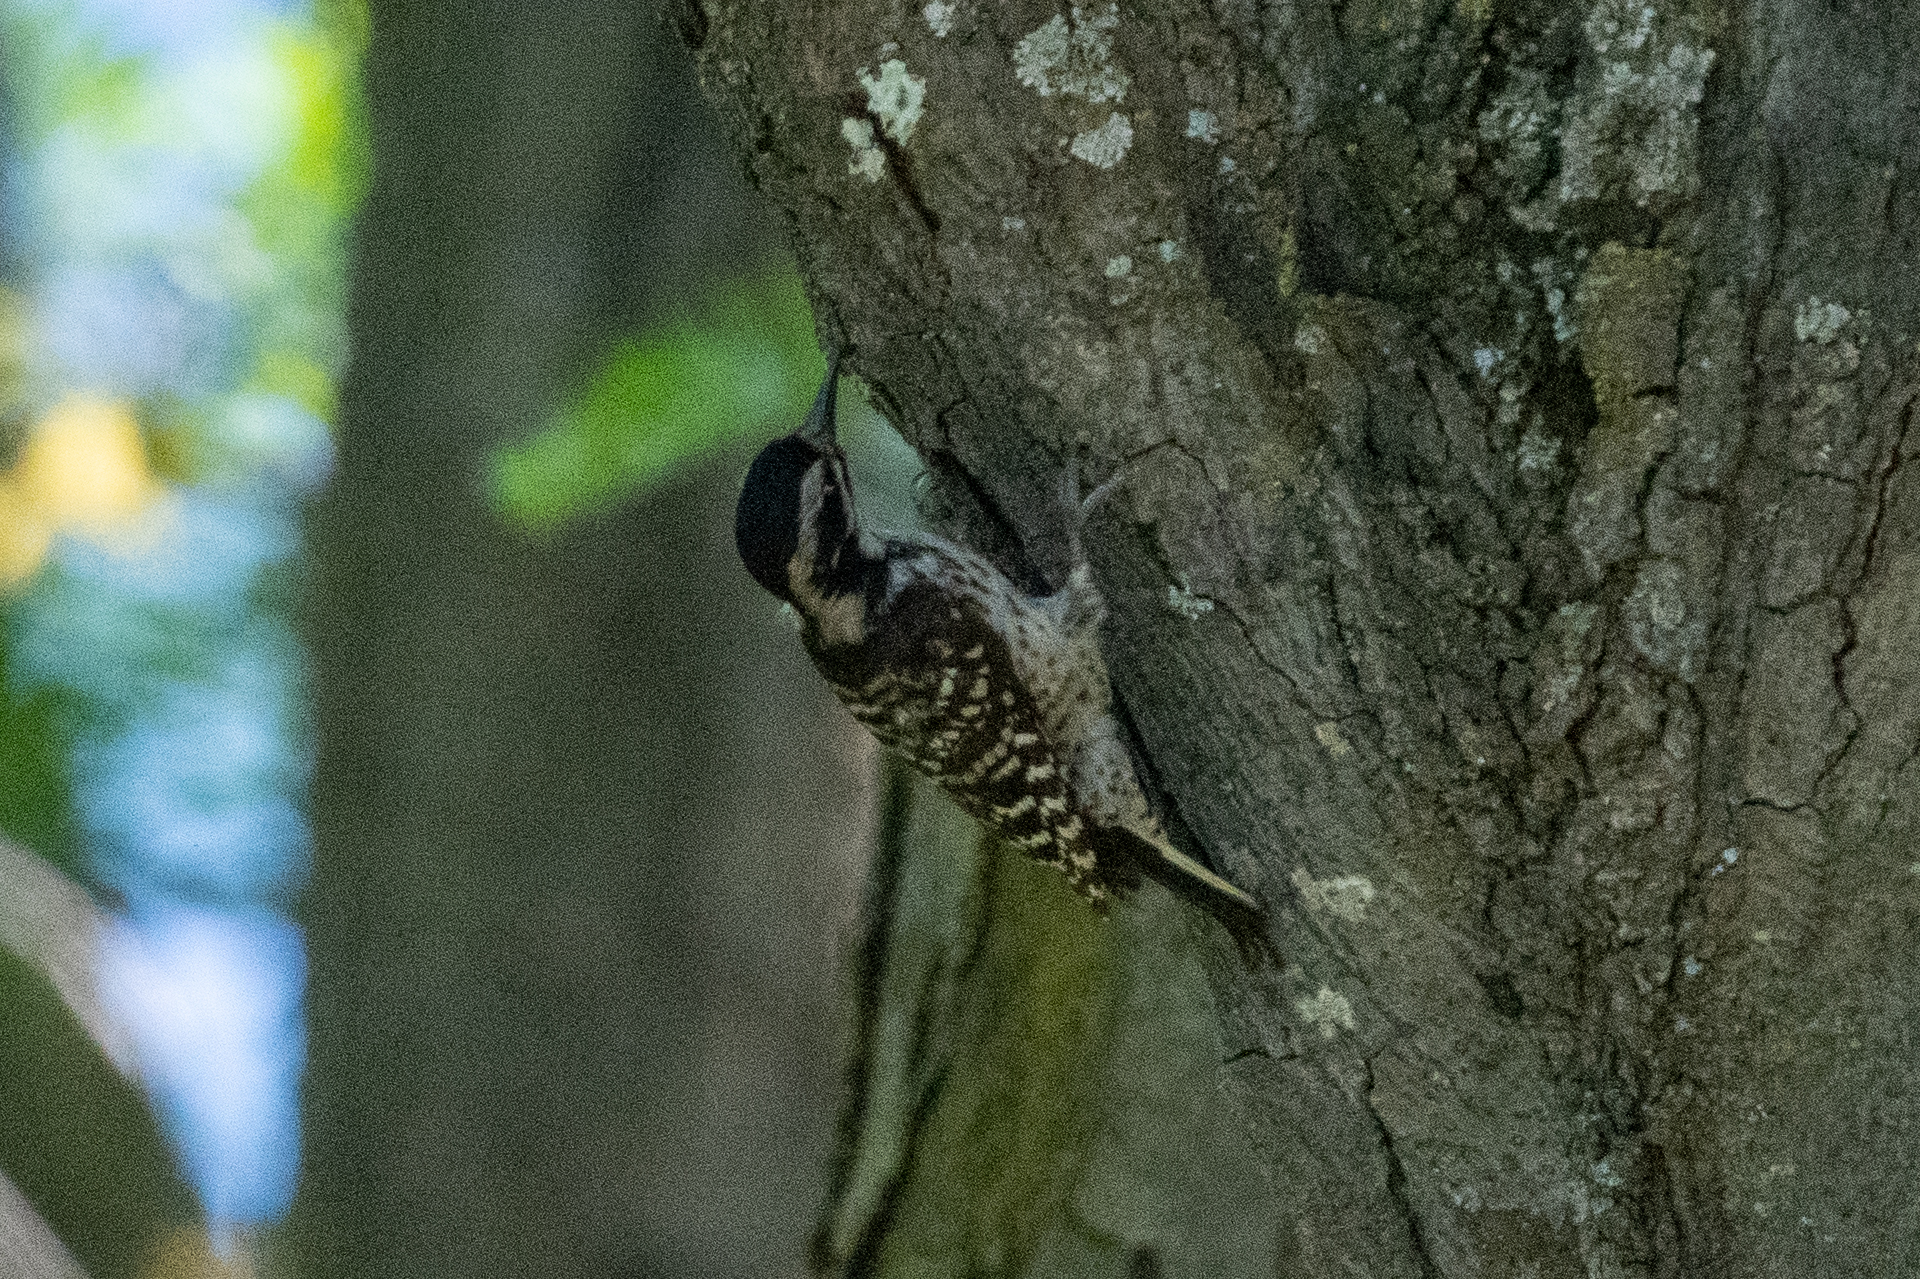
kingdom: Animalia
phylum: Chordata
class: Aves
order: Piciformes
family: Picidae
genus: Dryobates
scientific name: Dryobates nuttallii
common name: Nuttall's woodpecker
